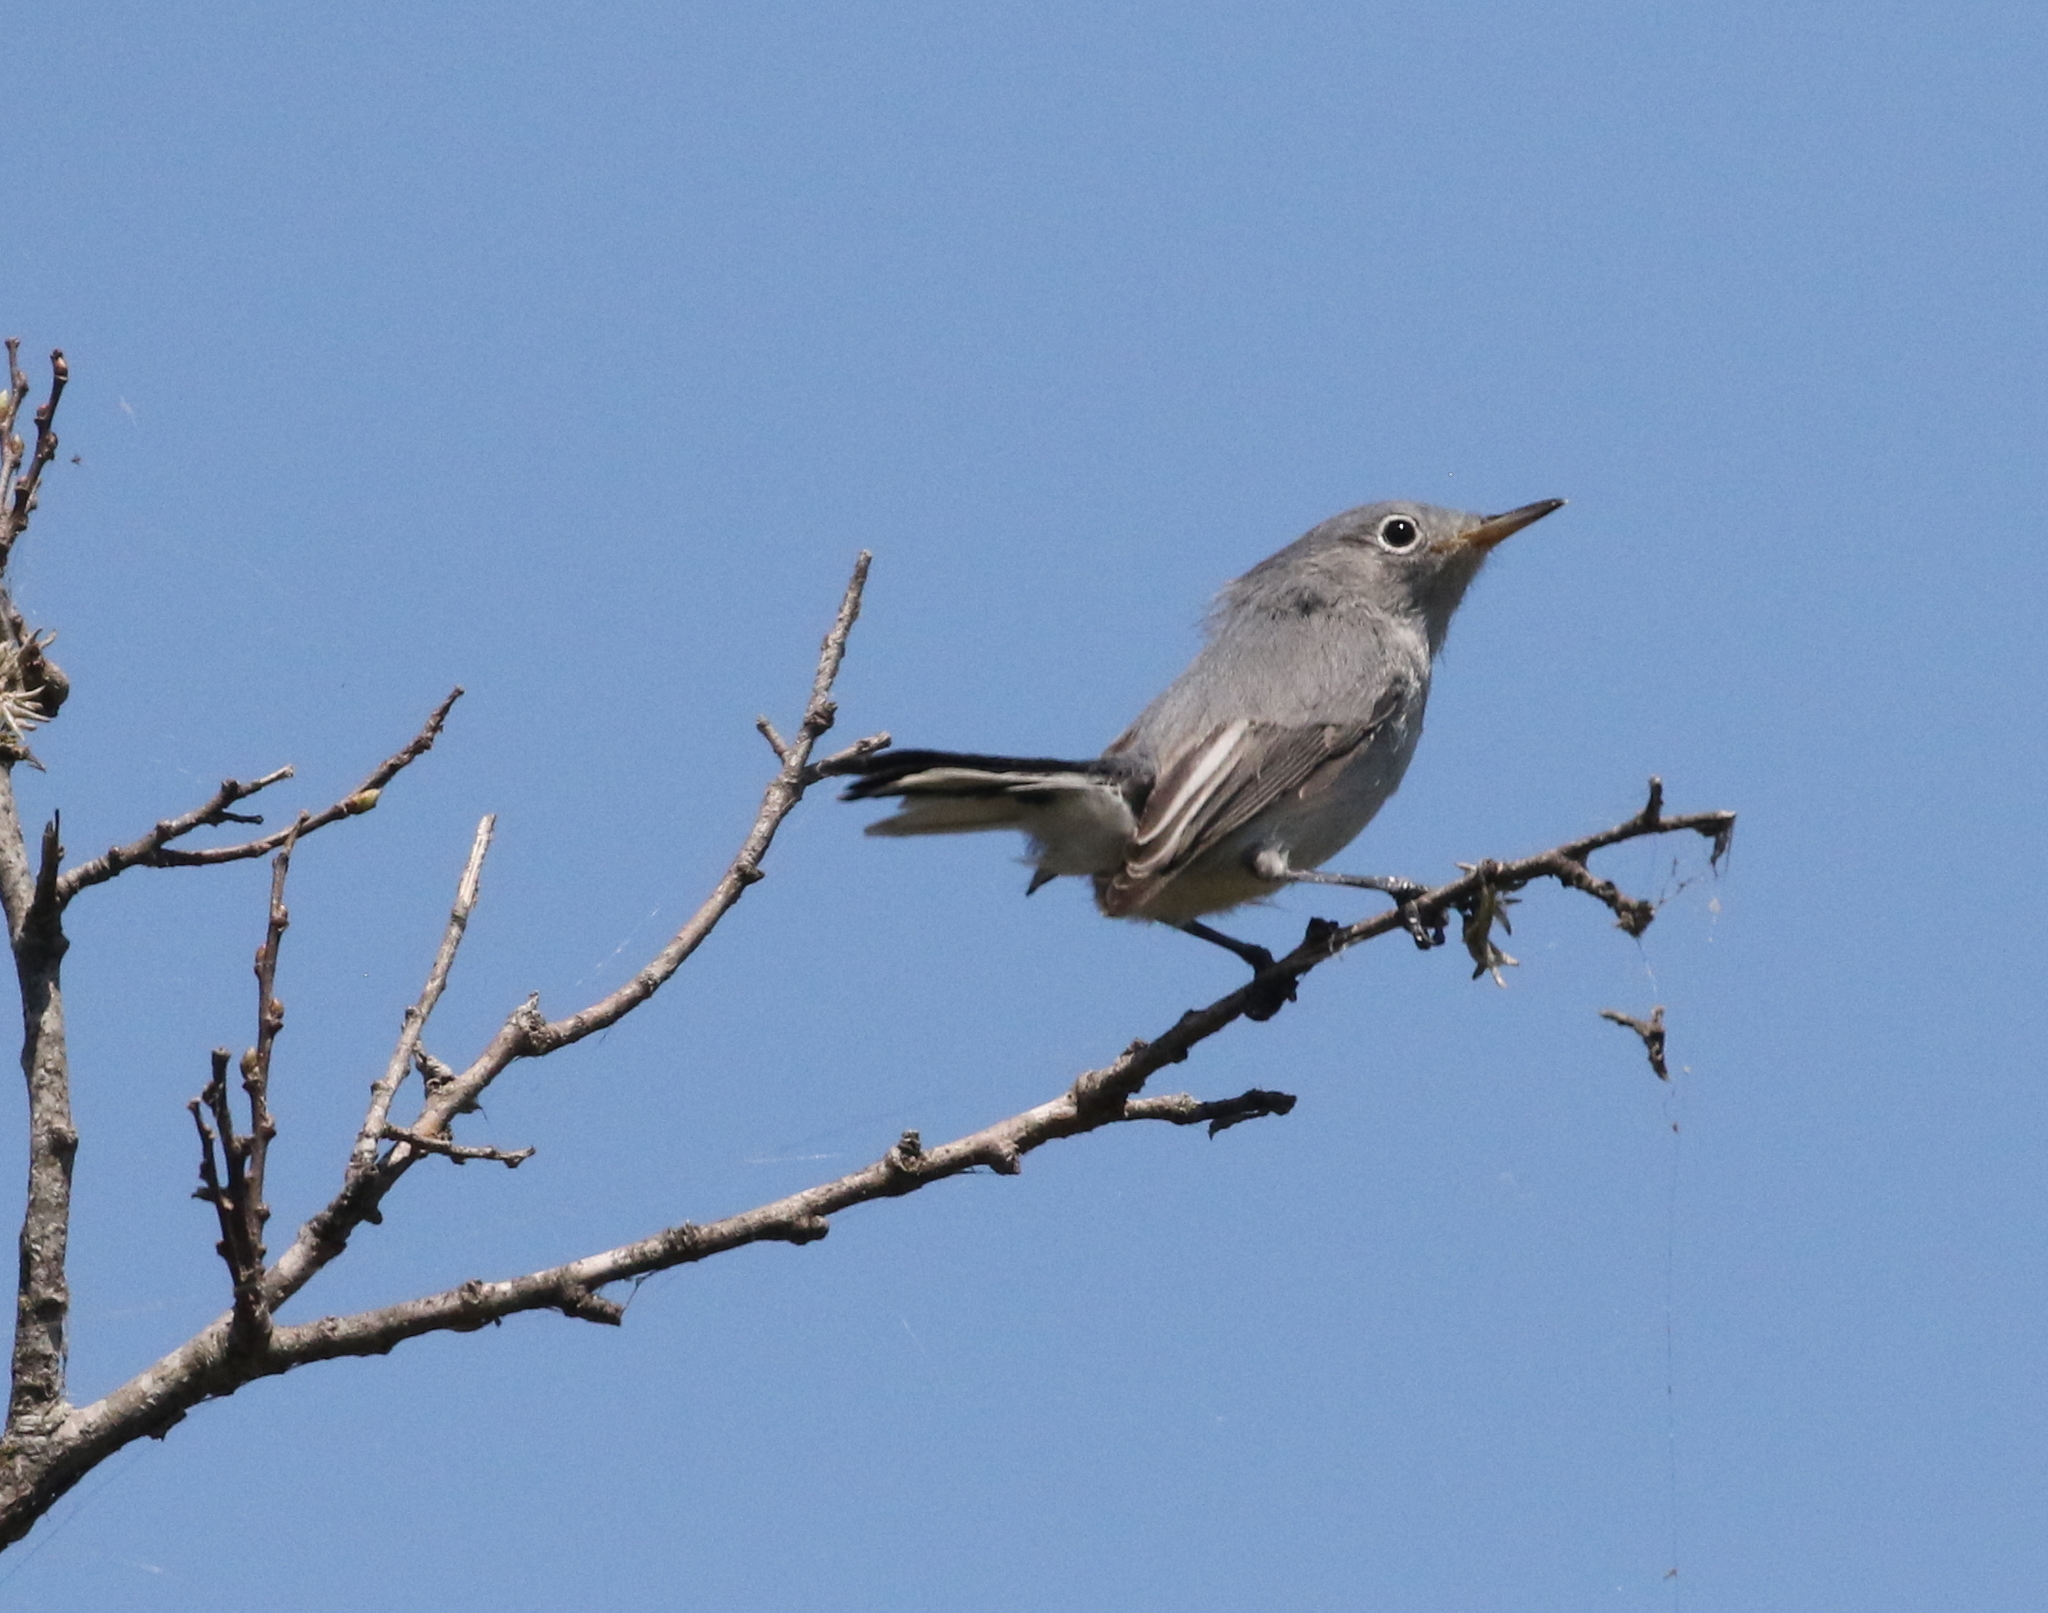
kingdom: Animalia
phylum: Chordata
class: Aves
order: Passeriformes
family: Polioptilidae
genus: Polioptila
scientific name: Polioptila caerulea
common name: Blue-gray gnatcatcher
